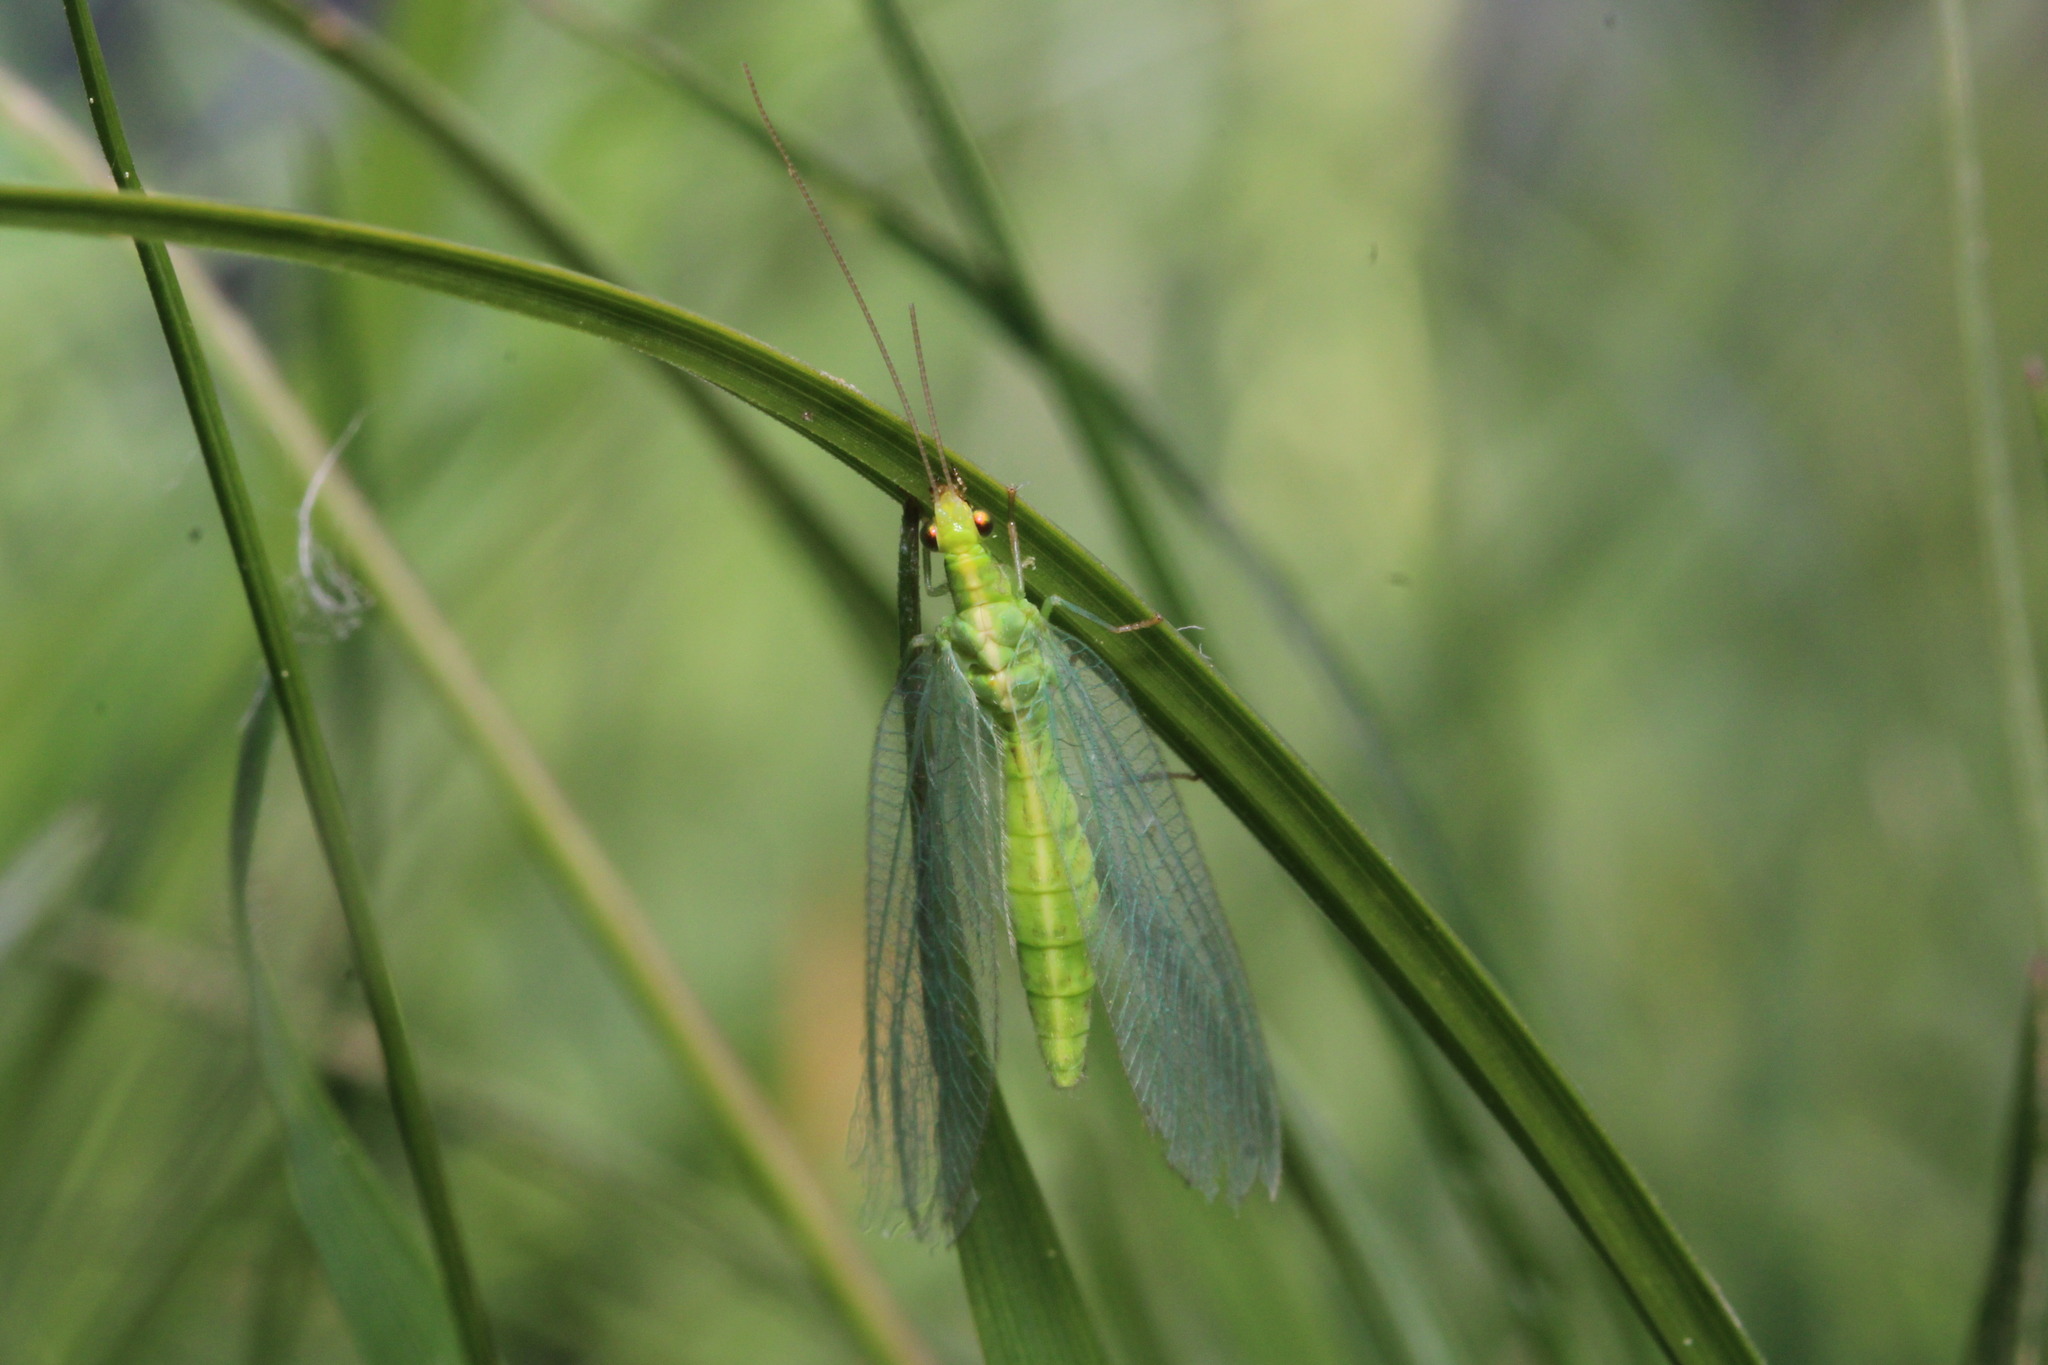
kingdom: Animalia
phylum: Arthropoda
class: Insecta
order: Neuroptera
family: Chrysopidae
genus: Chrysoperla
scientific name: Chrysoperla
